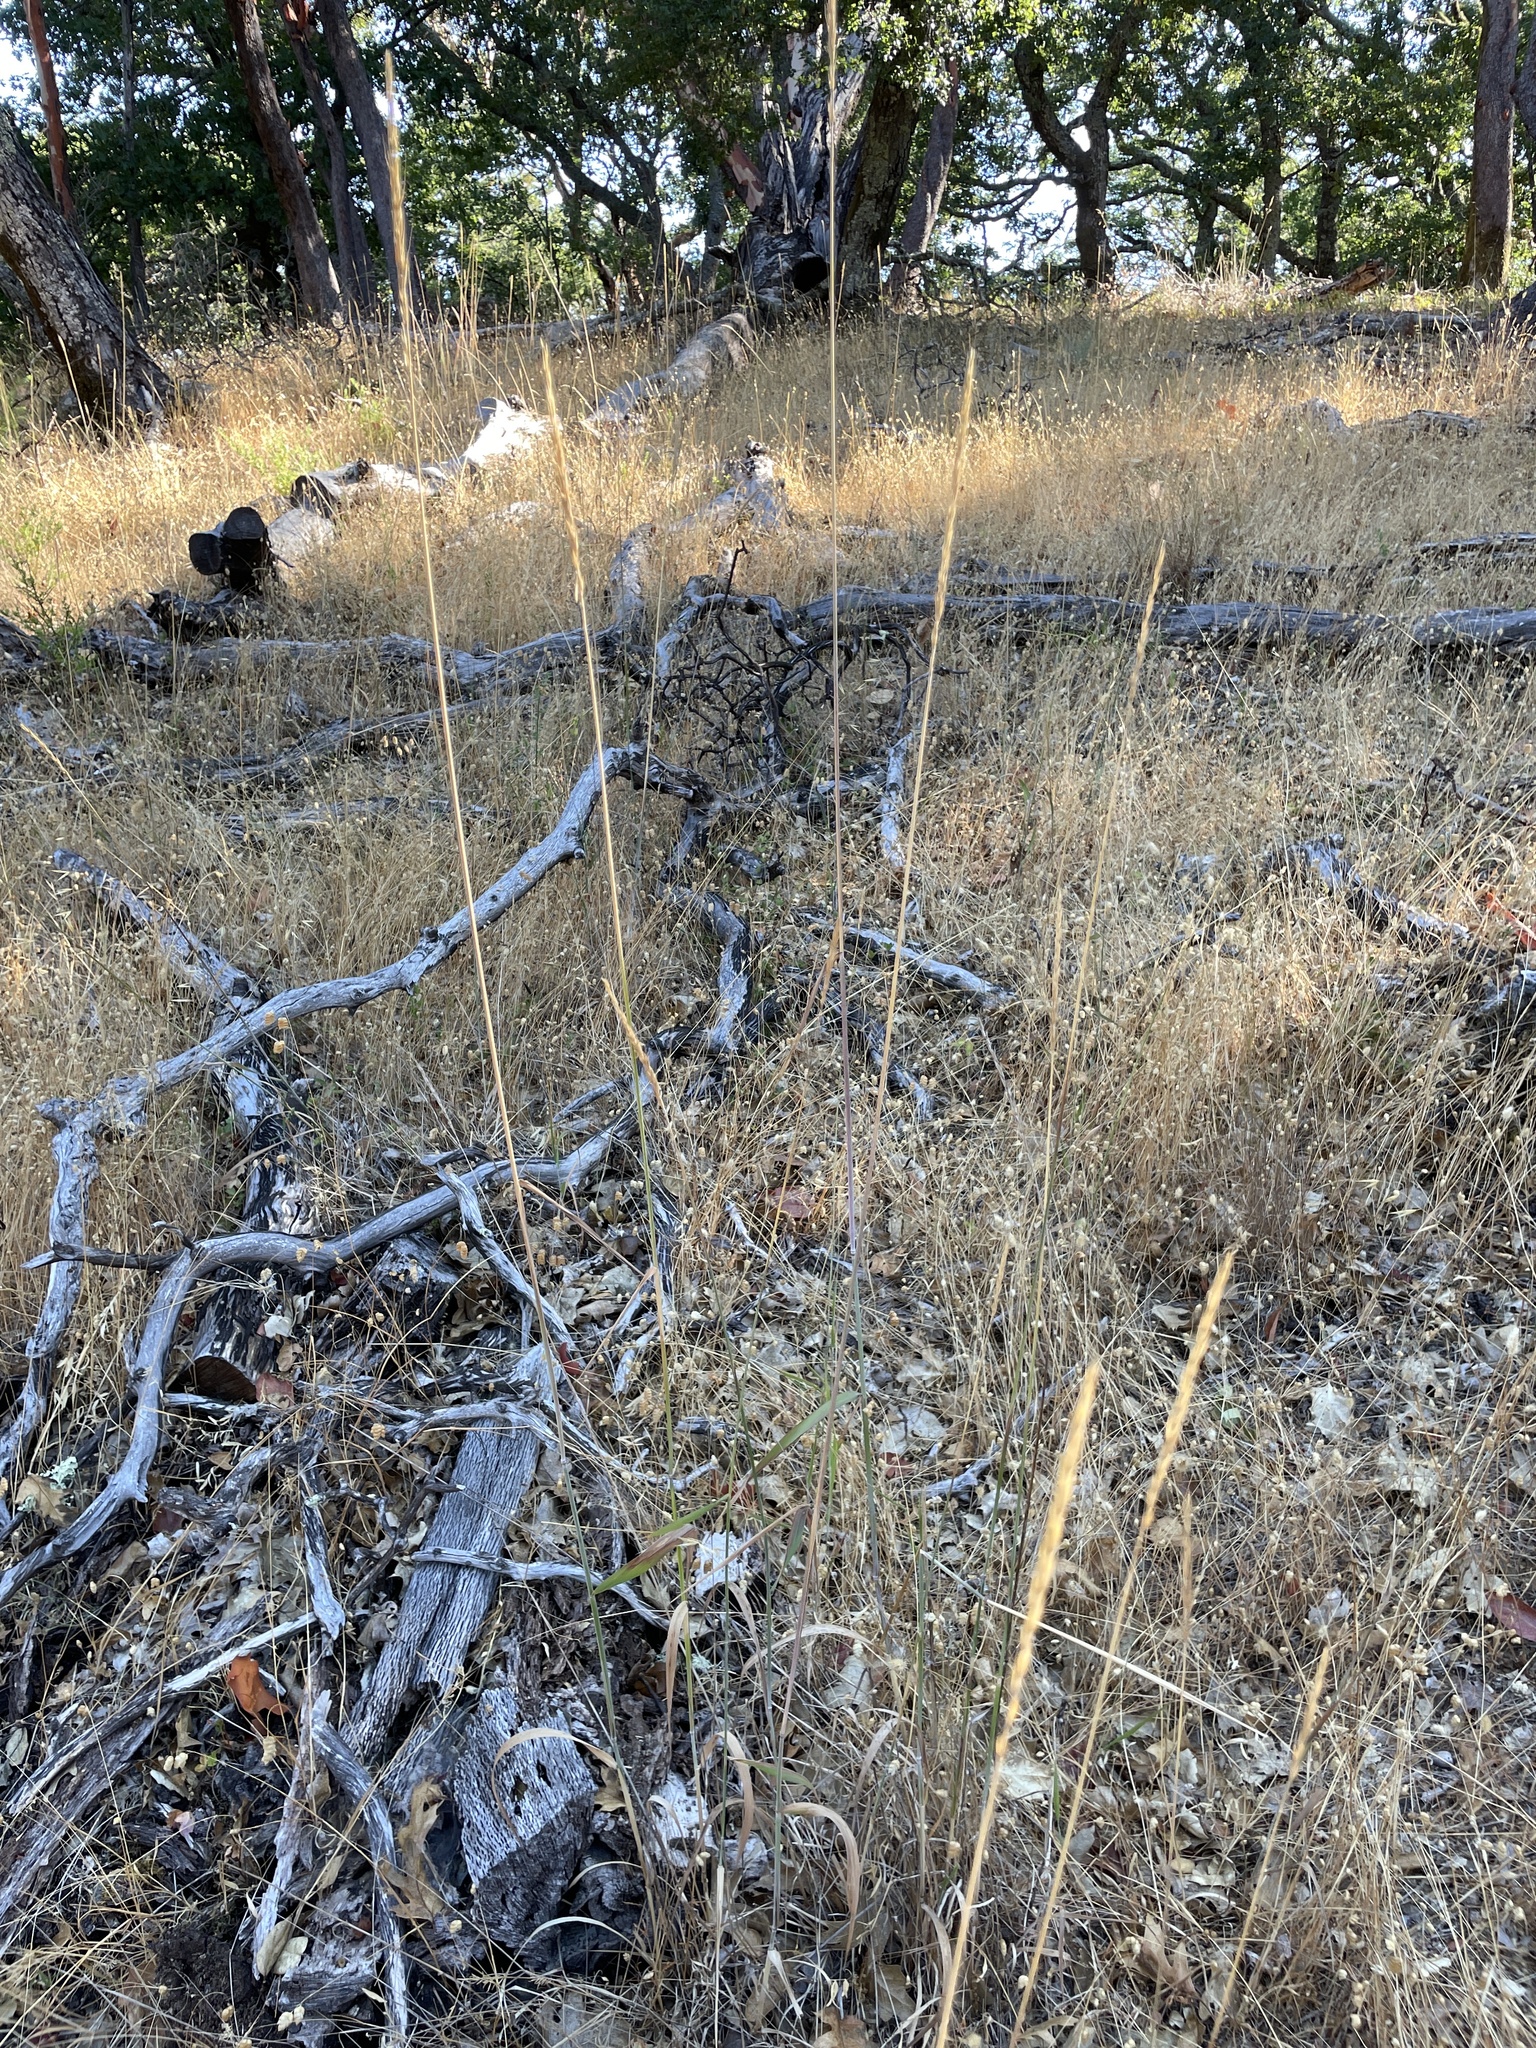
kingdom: Plantae
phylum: Tracheophyta
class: Liliopsida
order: Poales
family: Poaceae
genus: Elymus
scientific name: Elymus glaucus
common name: Blue wild rye
